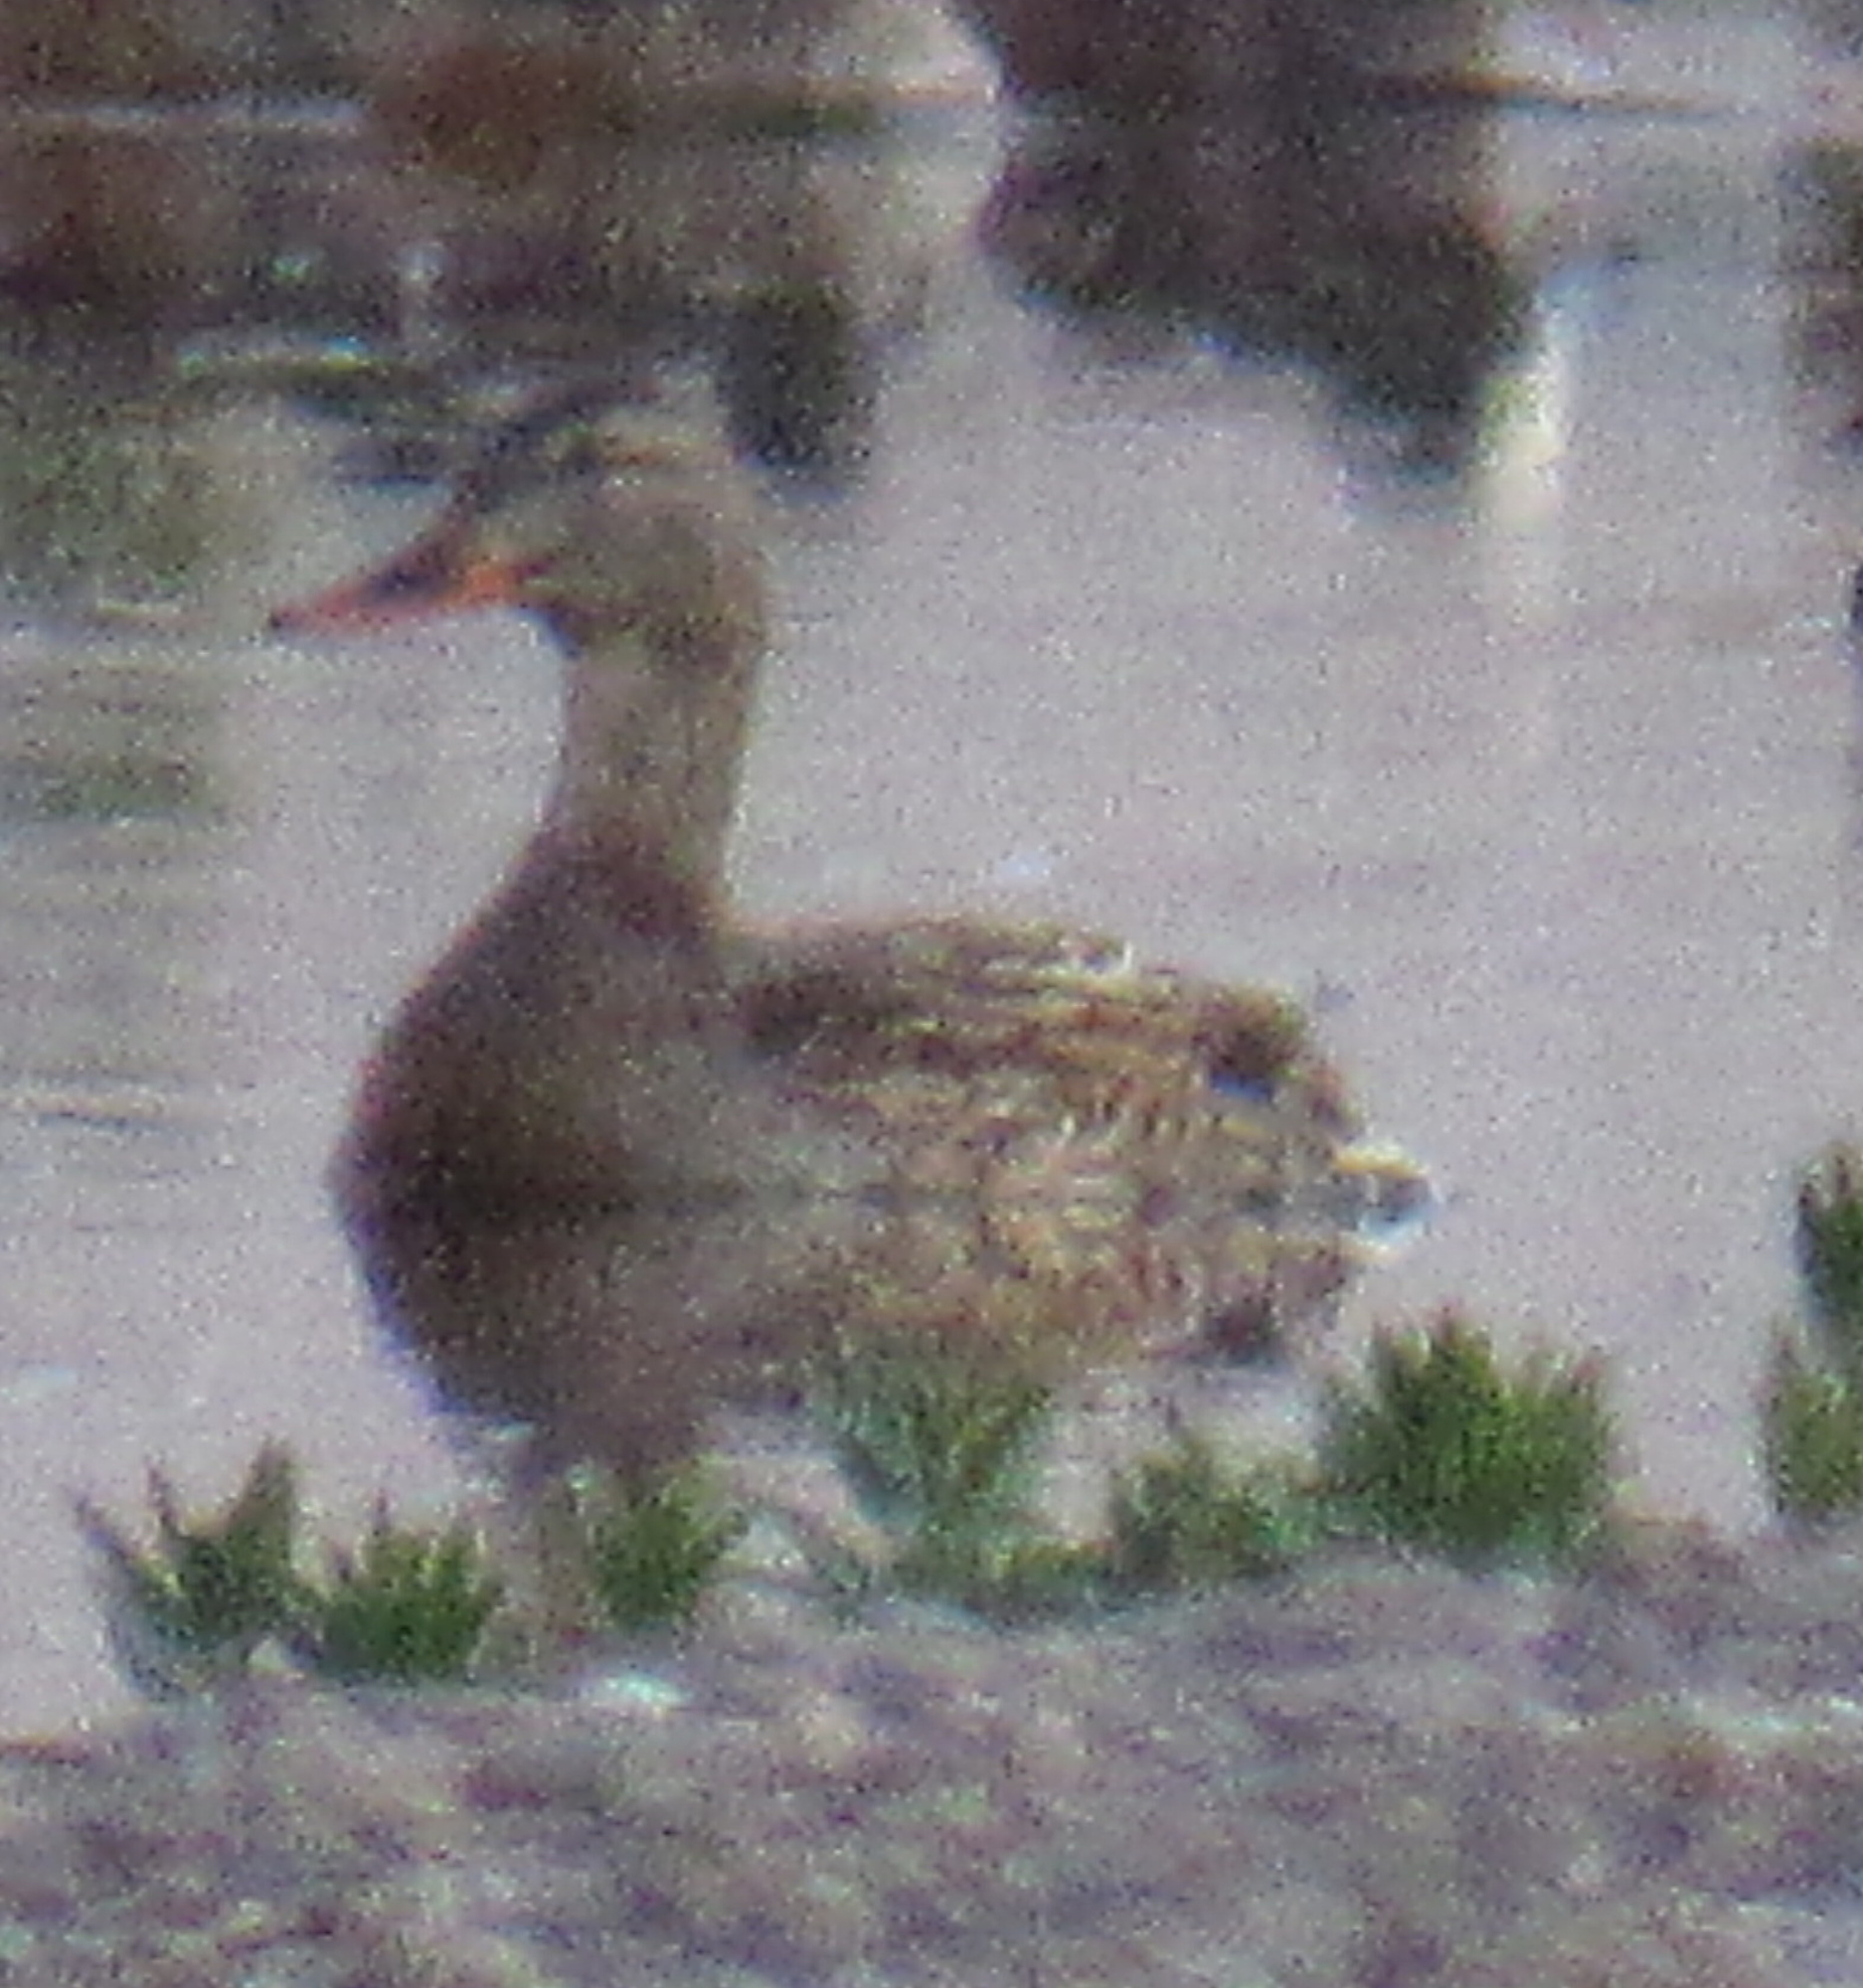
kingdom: Animalia
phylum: Chordata
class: Aves
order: Anseriformes
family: Anatidae
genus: Anas
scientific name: Anas platyrhynchos
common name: Mallard
